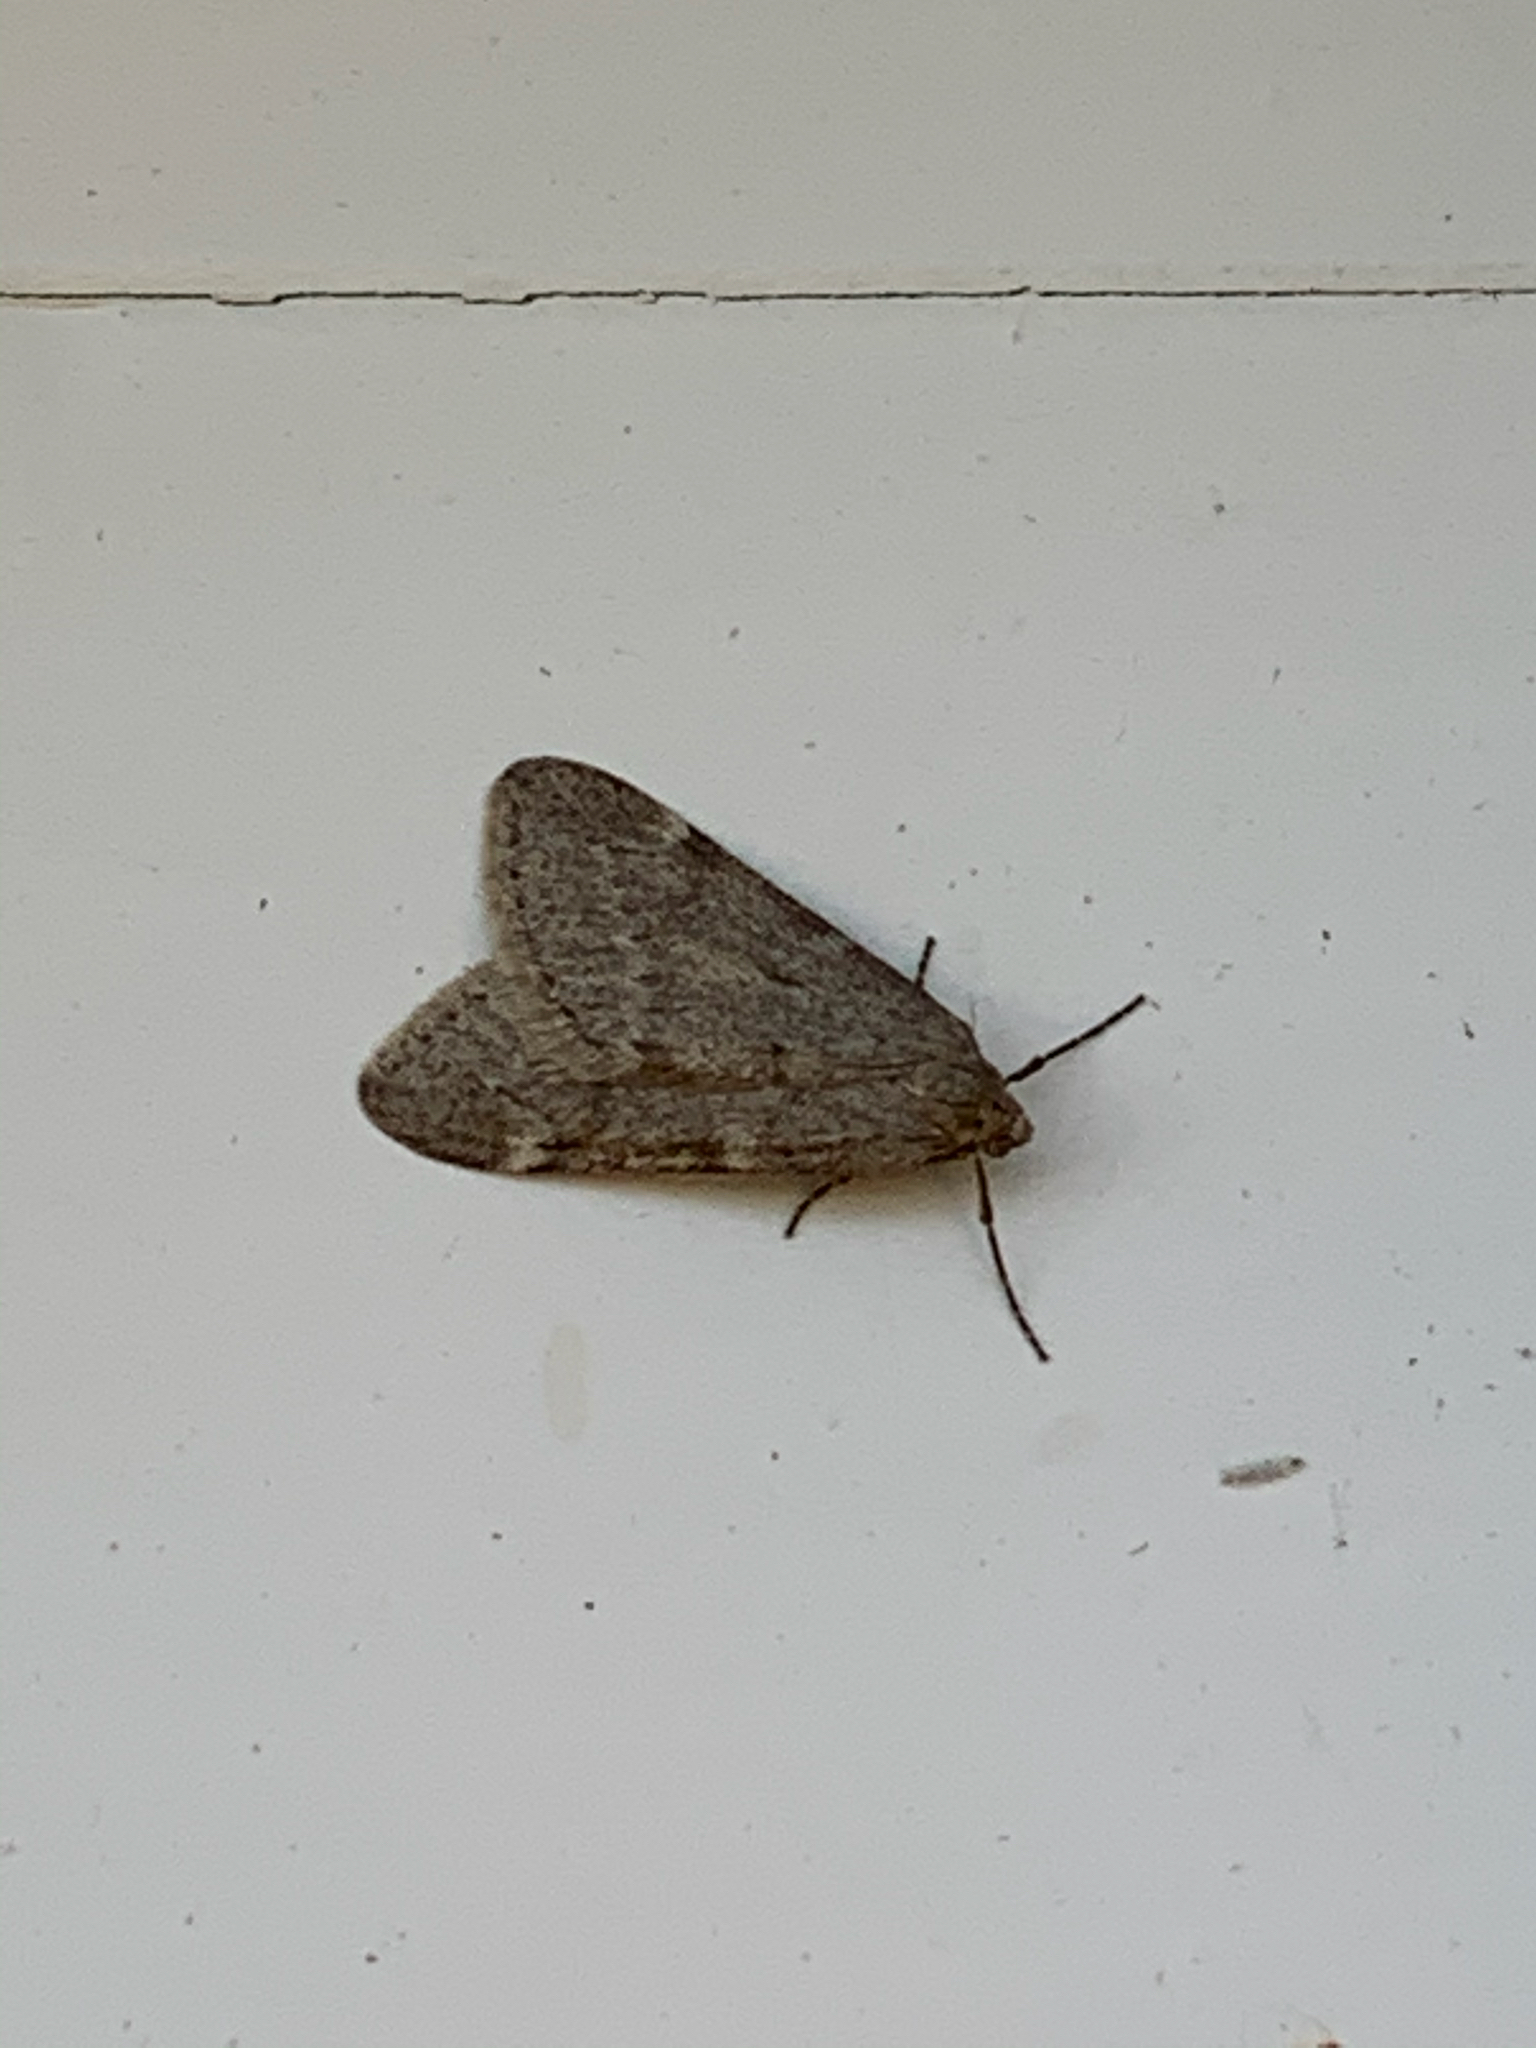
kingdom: Animalia
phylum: Arthropoda
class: Insecta
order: Lepidoptera
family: Geometridae
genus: Alsophila
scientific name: Alsophila pometaria
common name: Fall cankerworm
